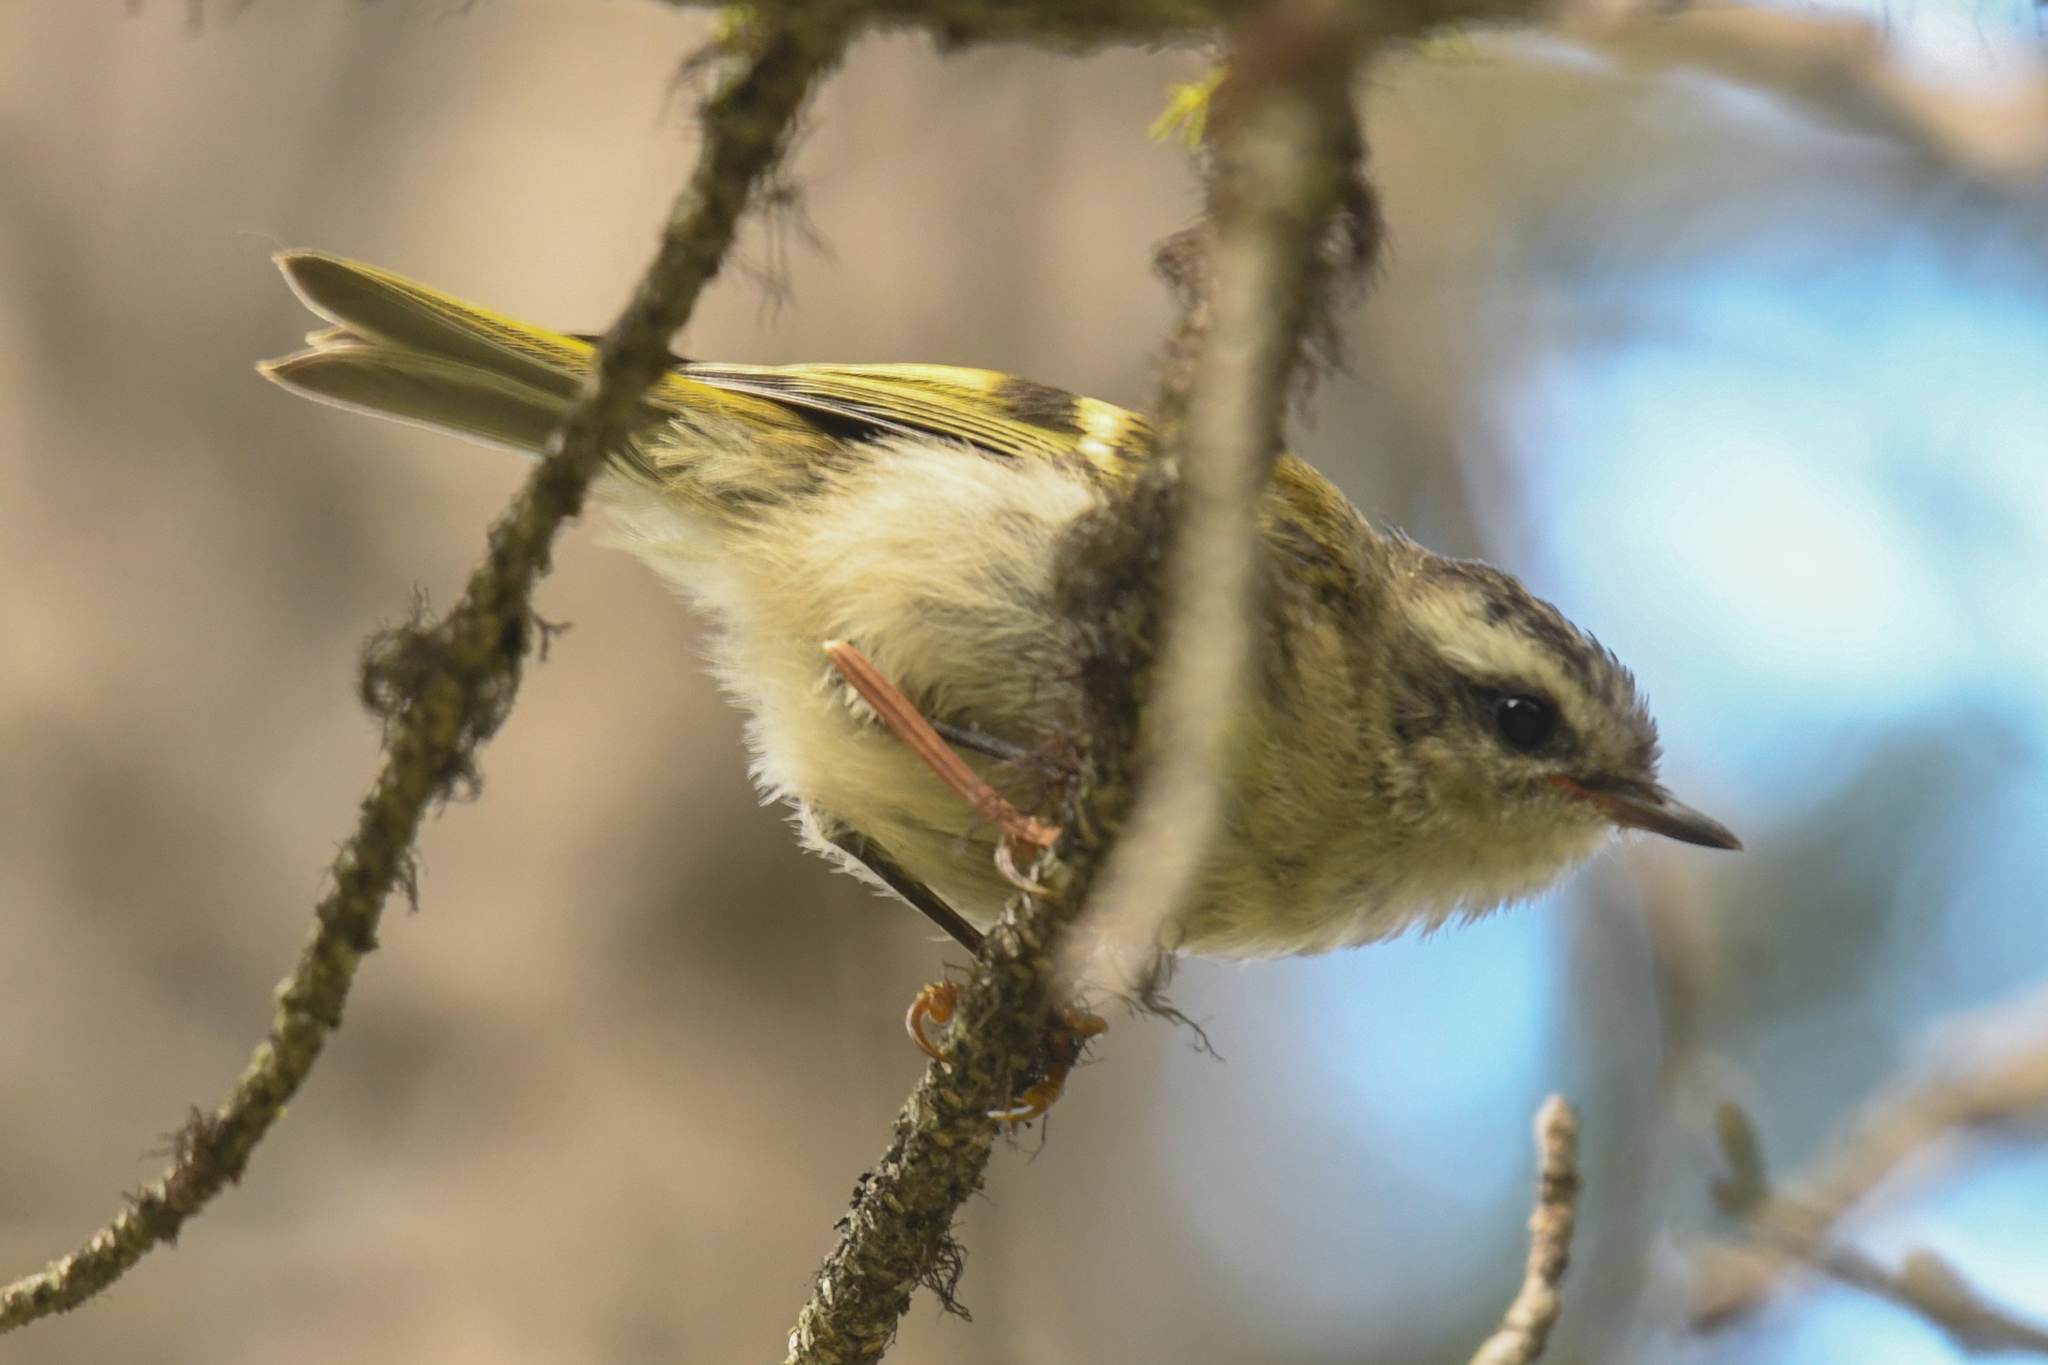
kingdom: Animalia
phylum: Chordata
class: Aves
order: Passeriformes
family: Regulidae
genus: Regulus
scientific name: Regulus satrapa
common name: Golden-crowned kinglet
